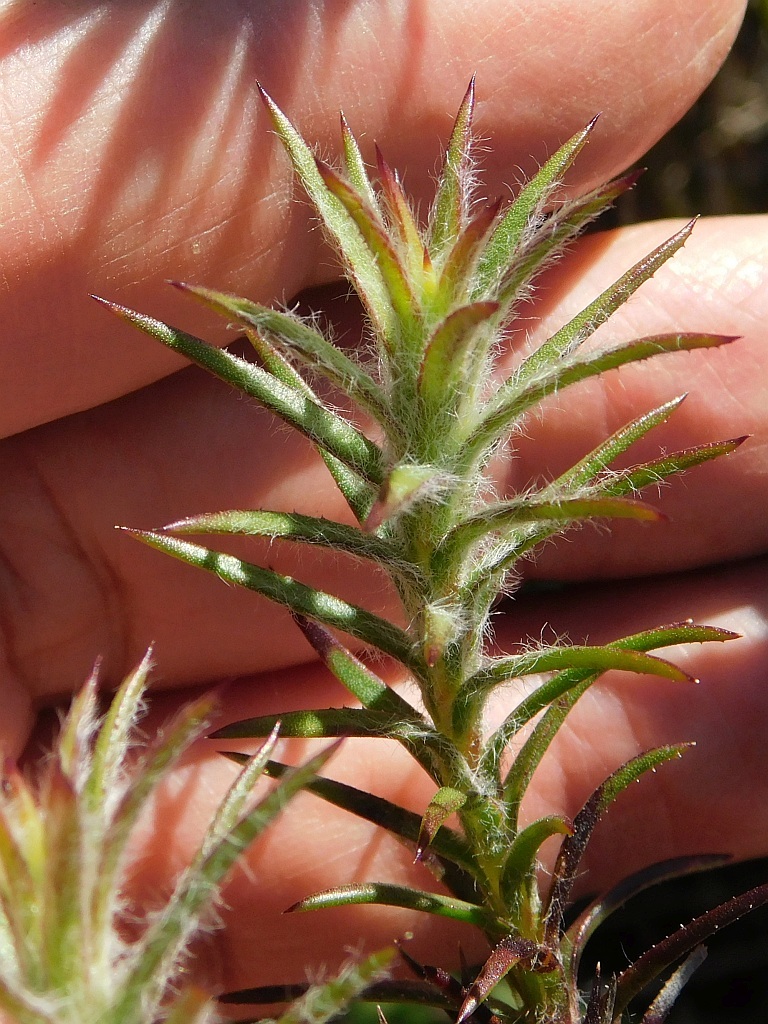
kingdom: Plantae
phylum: Tracheophyta
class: Magnoliopsida
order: Asterales
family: Asteraceae
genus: Oedera
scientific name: Oedera capensis
